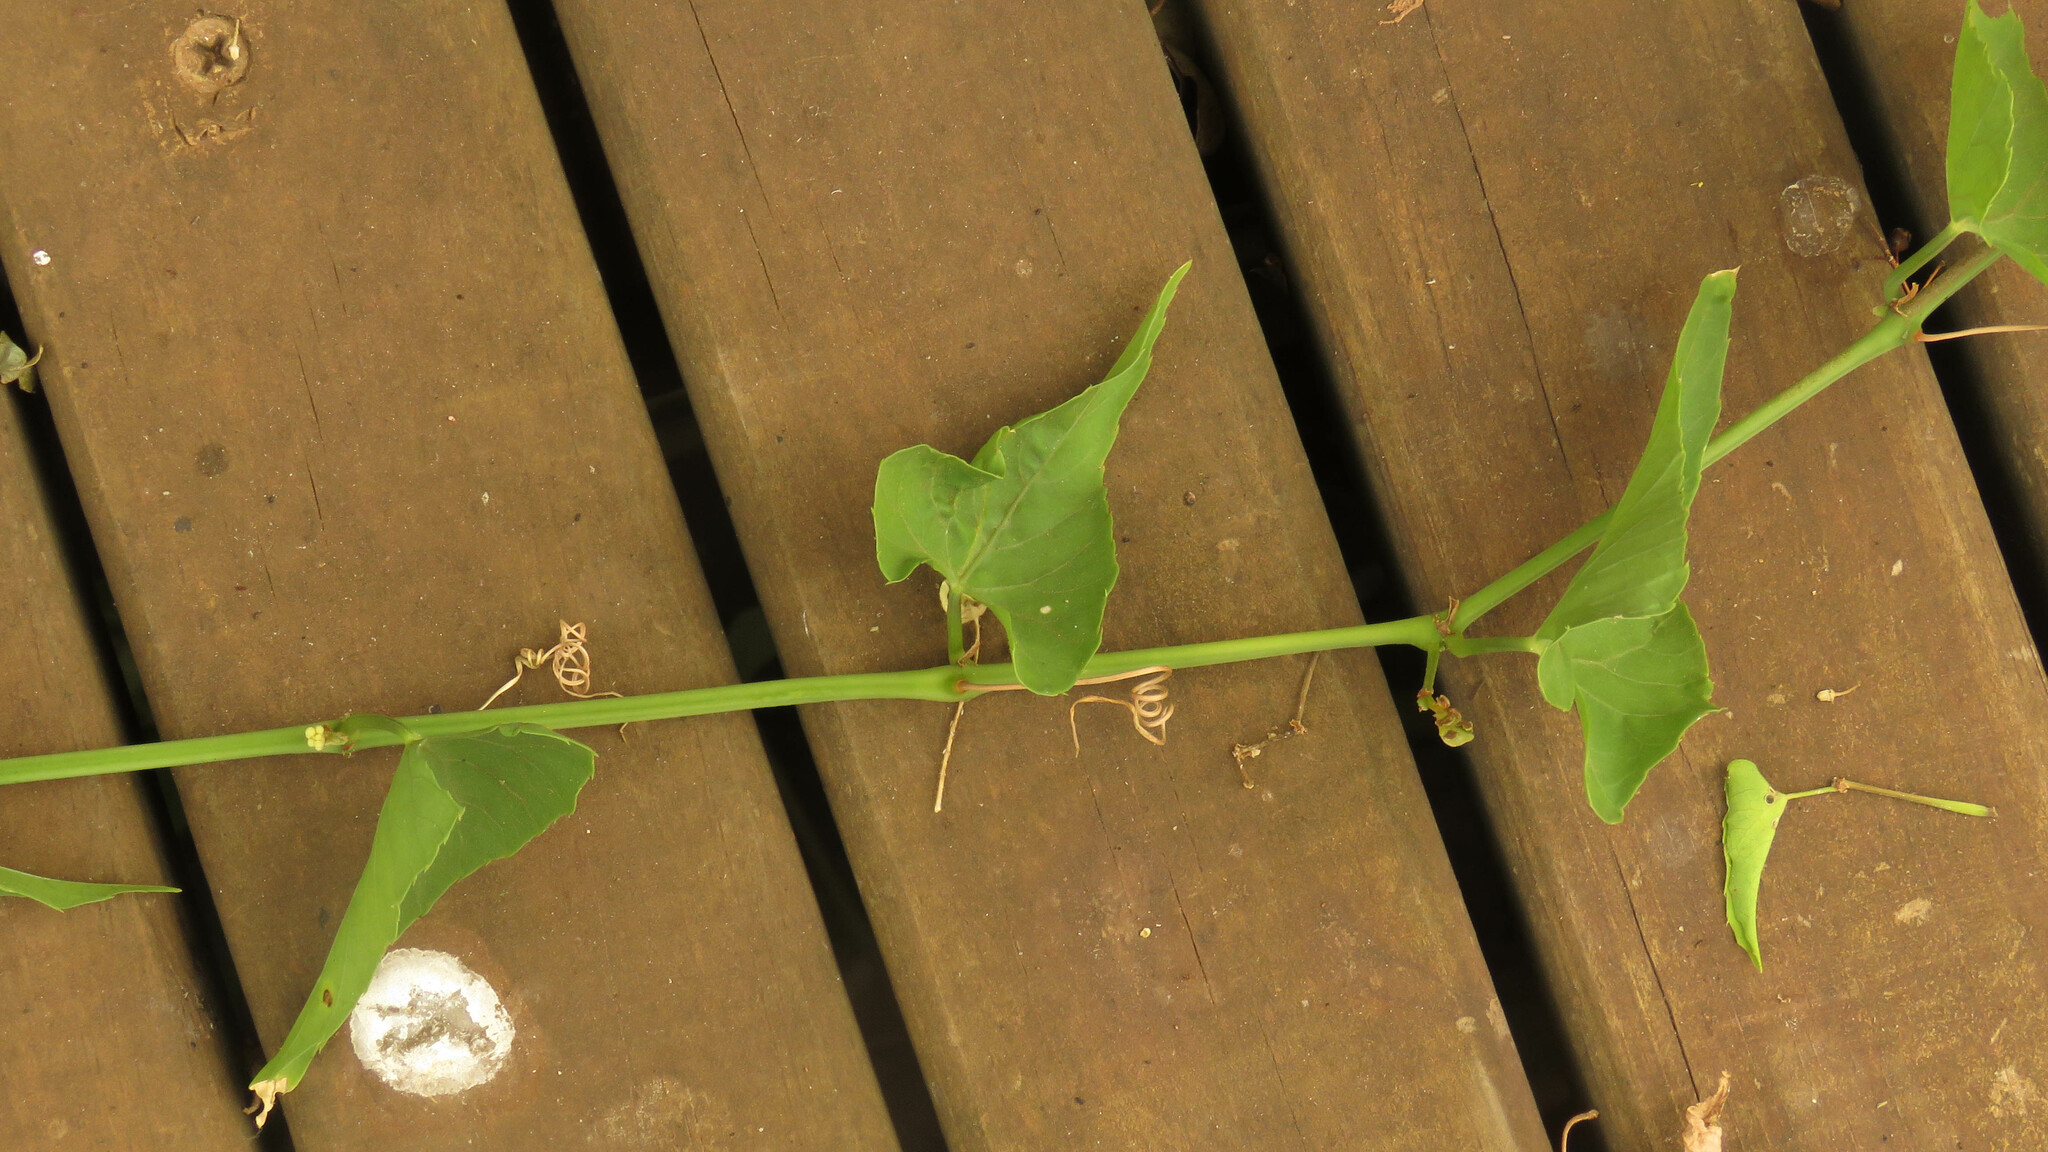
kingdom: Plantae
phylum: Tracheophyta
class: Magnoliopsida
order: Vitales
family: Vitaceae
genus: Cissus
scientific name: Cissus verticillata
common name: Princess vine
